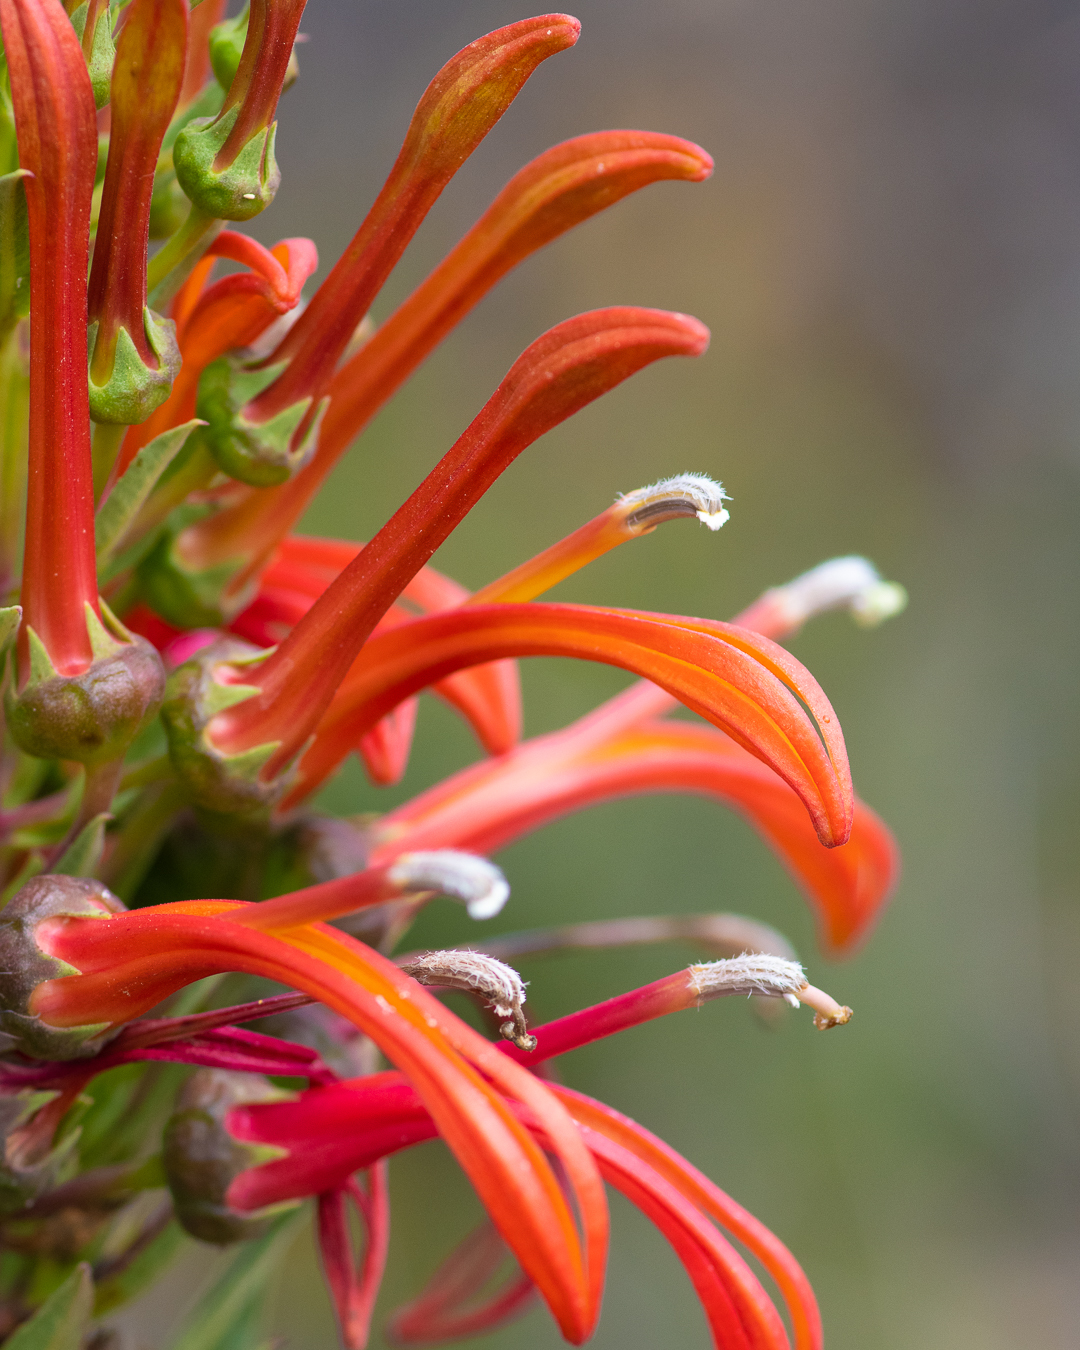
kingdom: Plantae
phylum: Tracheophyta
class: Magnoliopsida
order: Asterales
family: Campanulaceae
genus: Lobelia
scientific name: Lobelia excelsa
